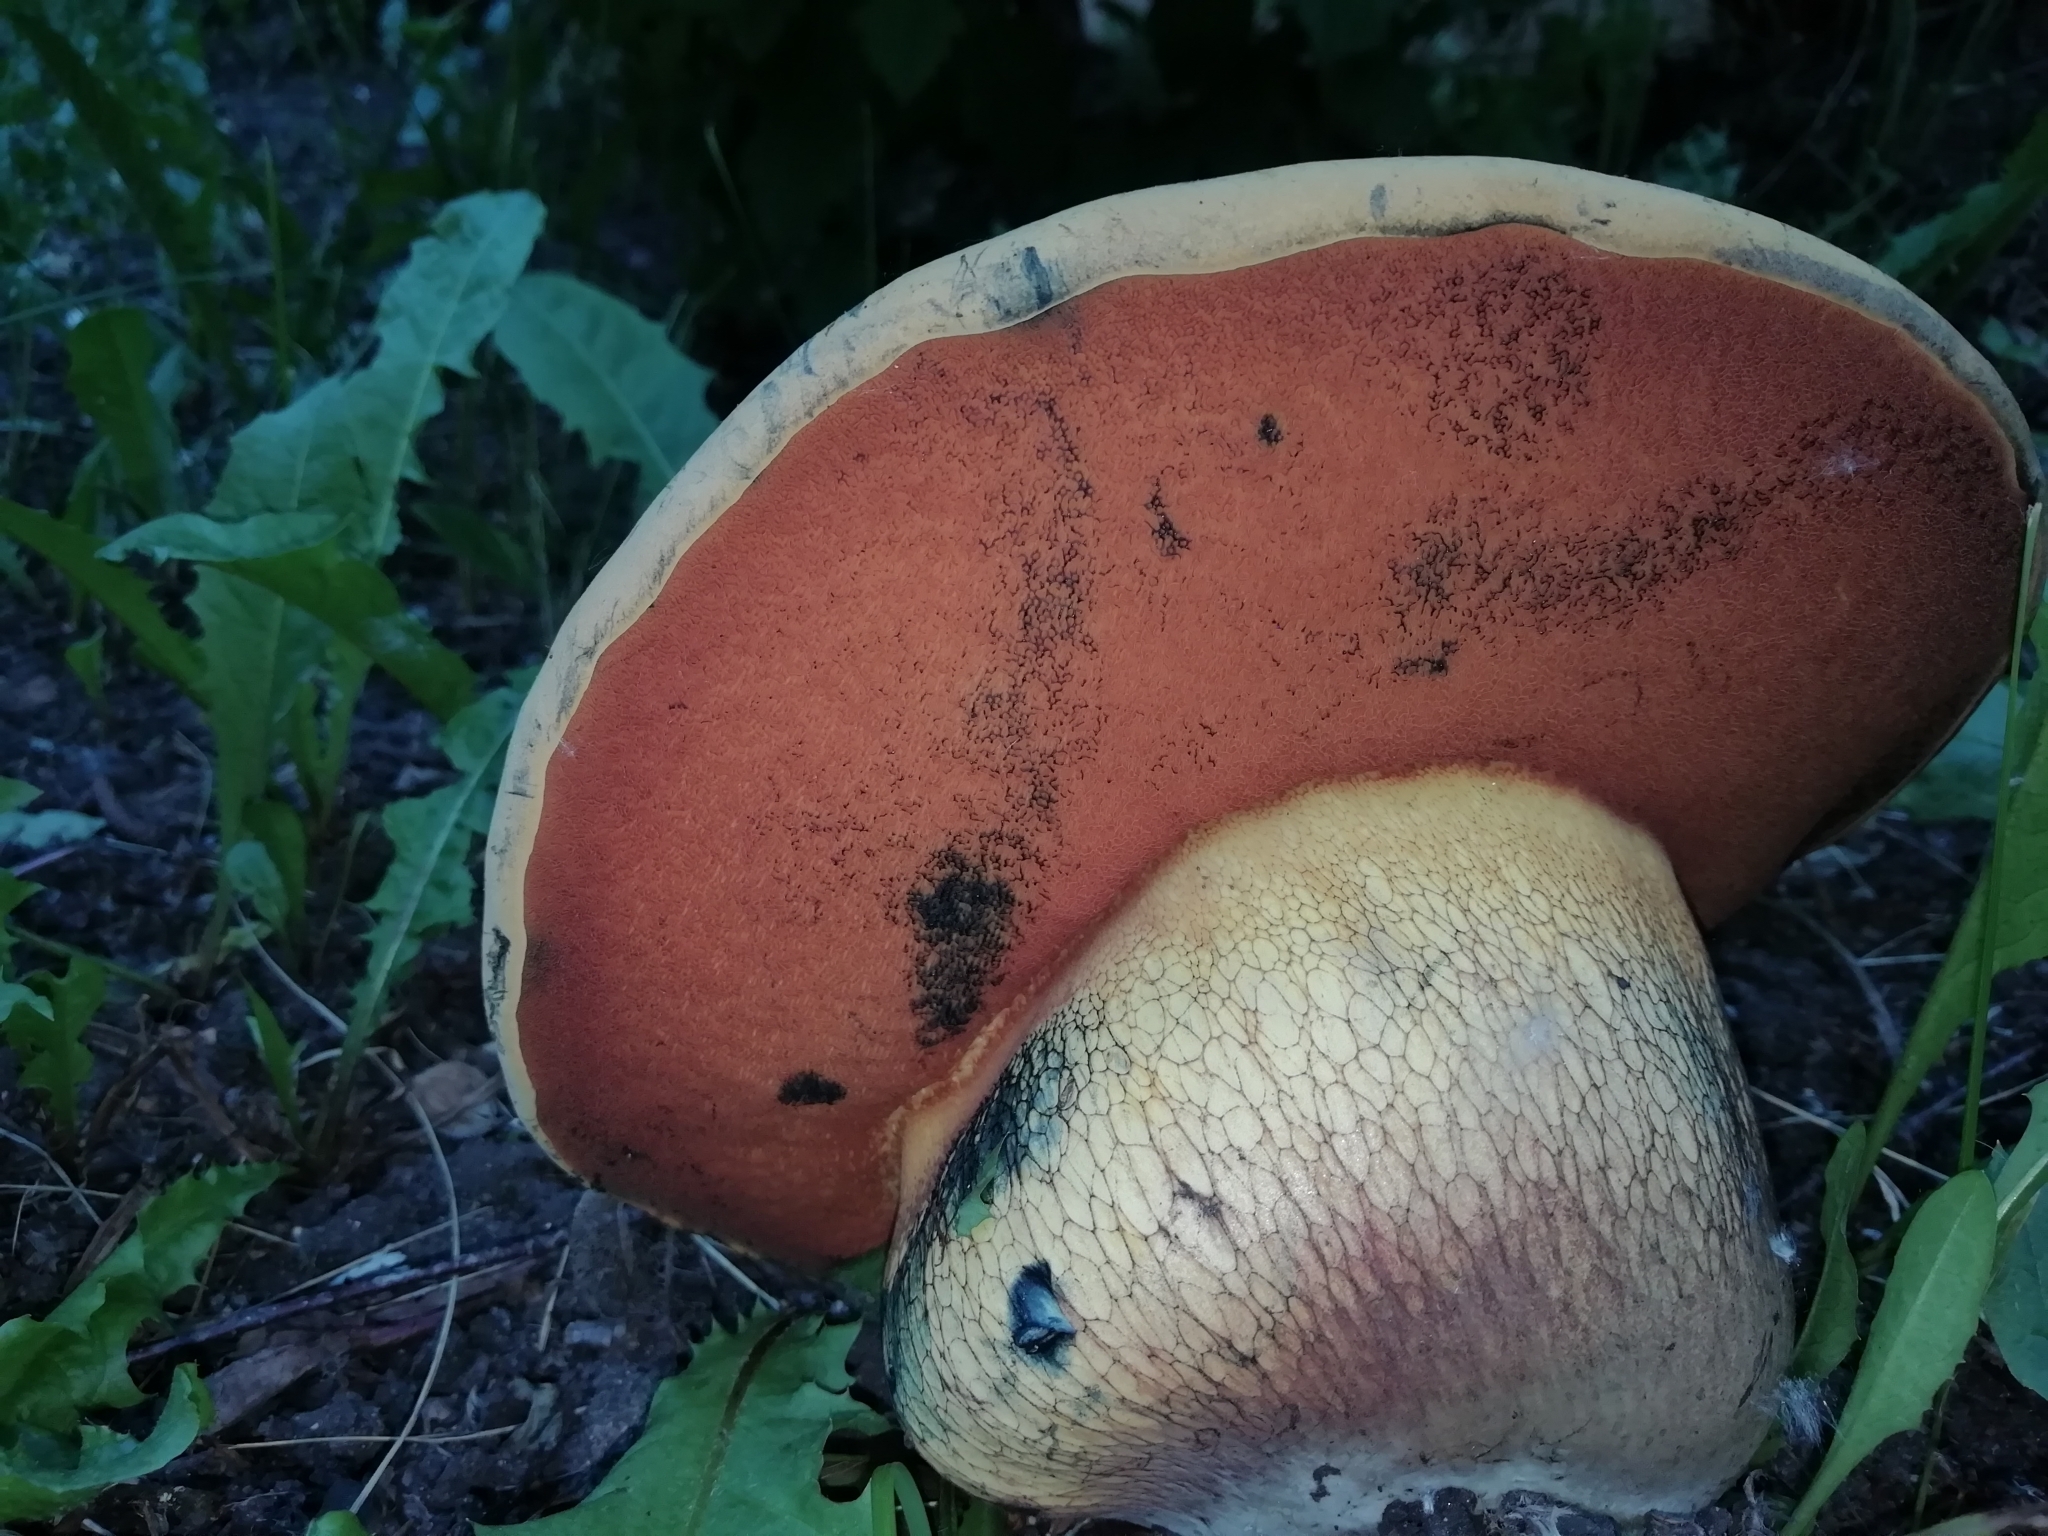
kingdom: Fungi
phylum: Basidiomycota
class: Agaricomycetes
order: Boletales
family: Boletaceae
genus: Suillellus
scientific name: Suillellus luridus
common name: Lurid bolete
